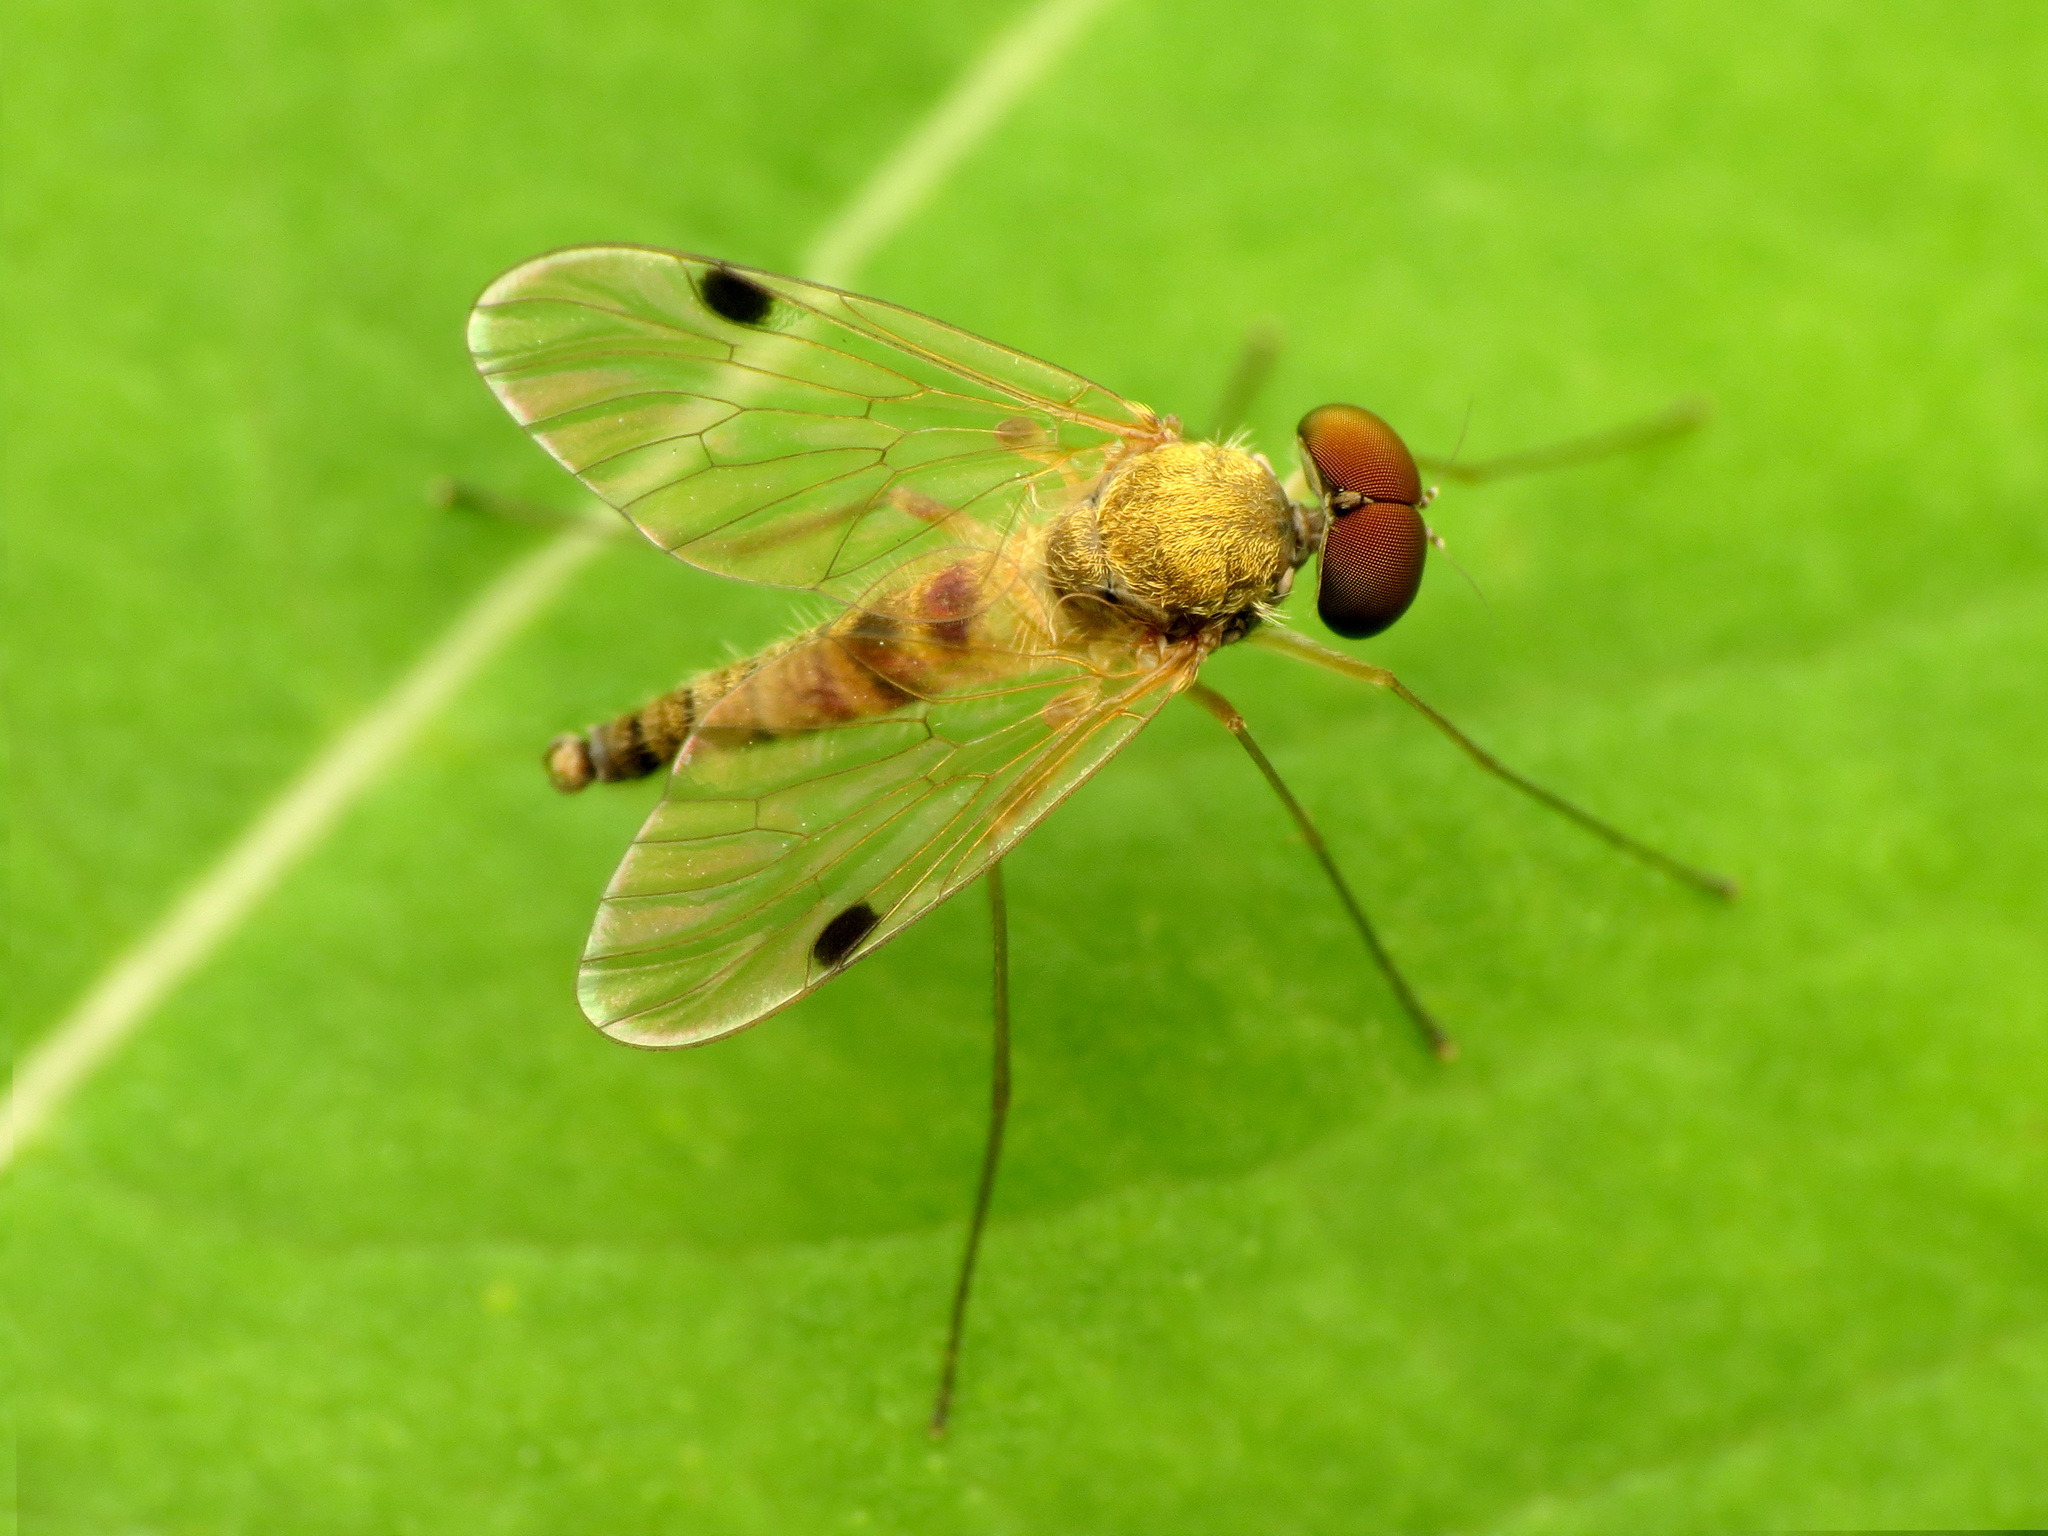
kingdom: Animalia
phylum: Arthropoda
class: Insecta
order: Diptera
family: Rhagionidae
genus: Chrysopilus
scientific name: Chrysopilus modestus
